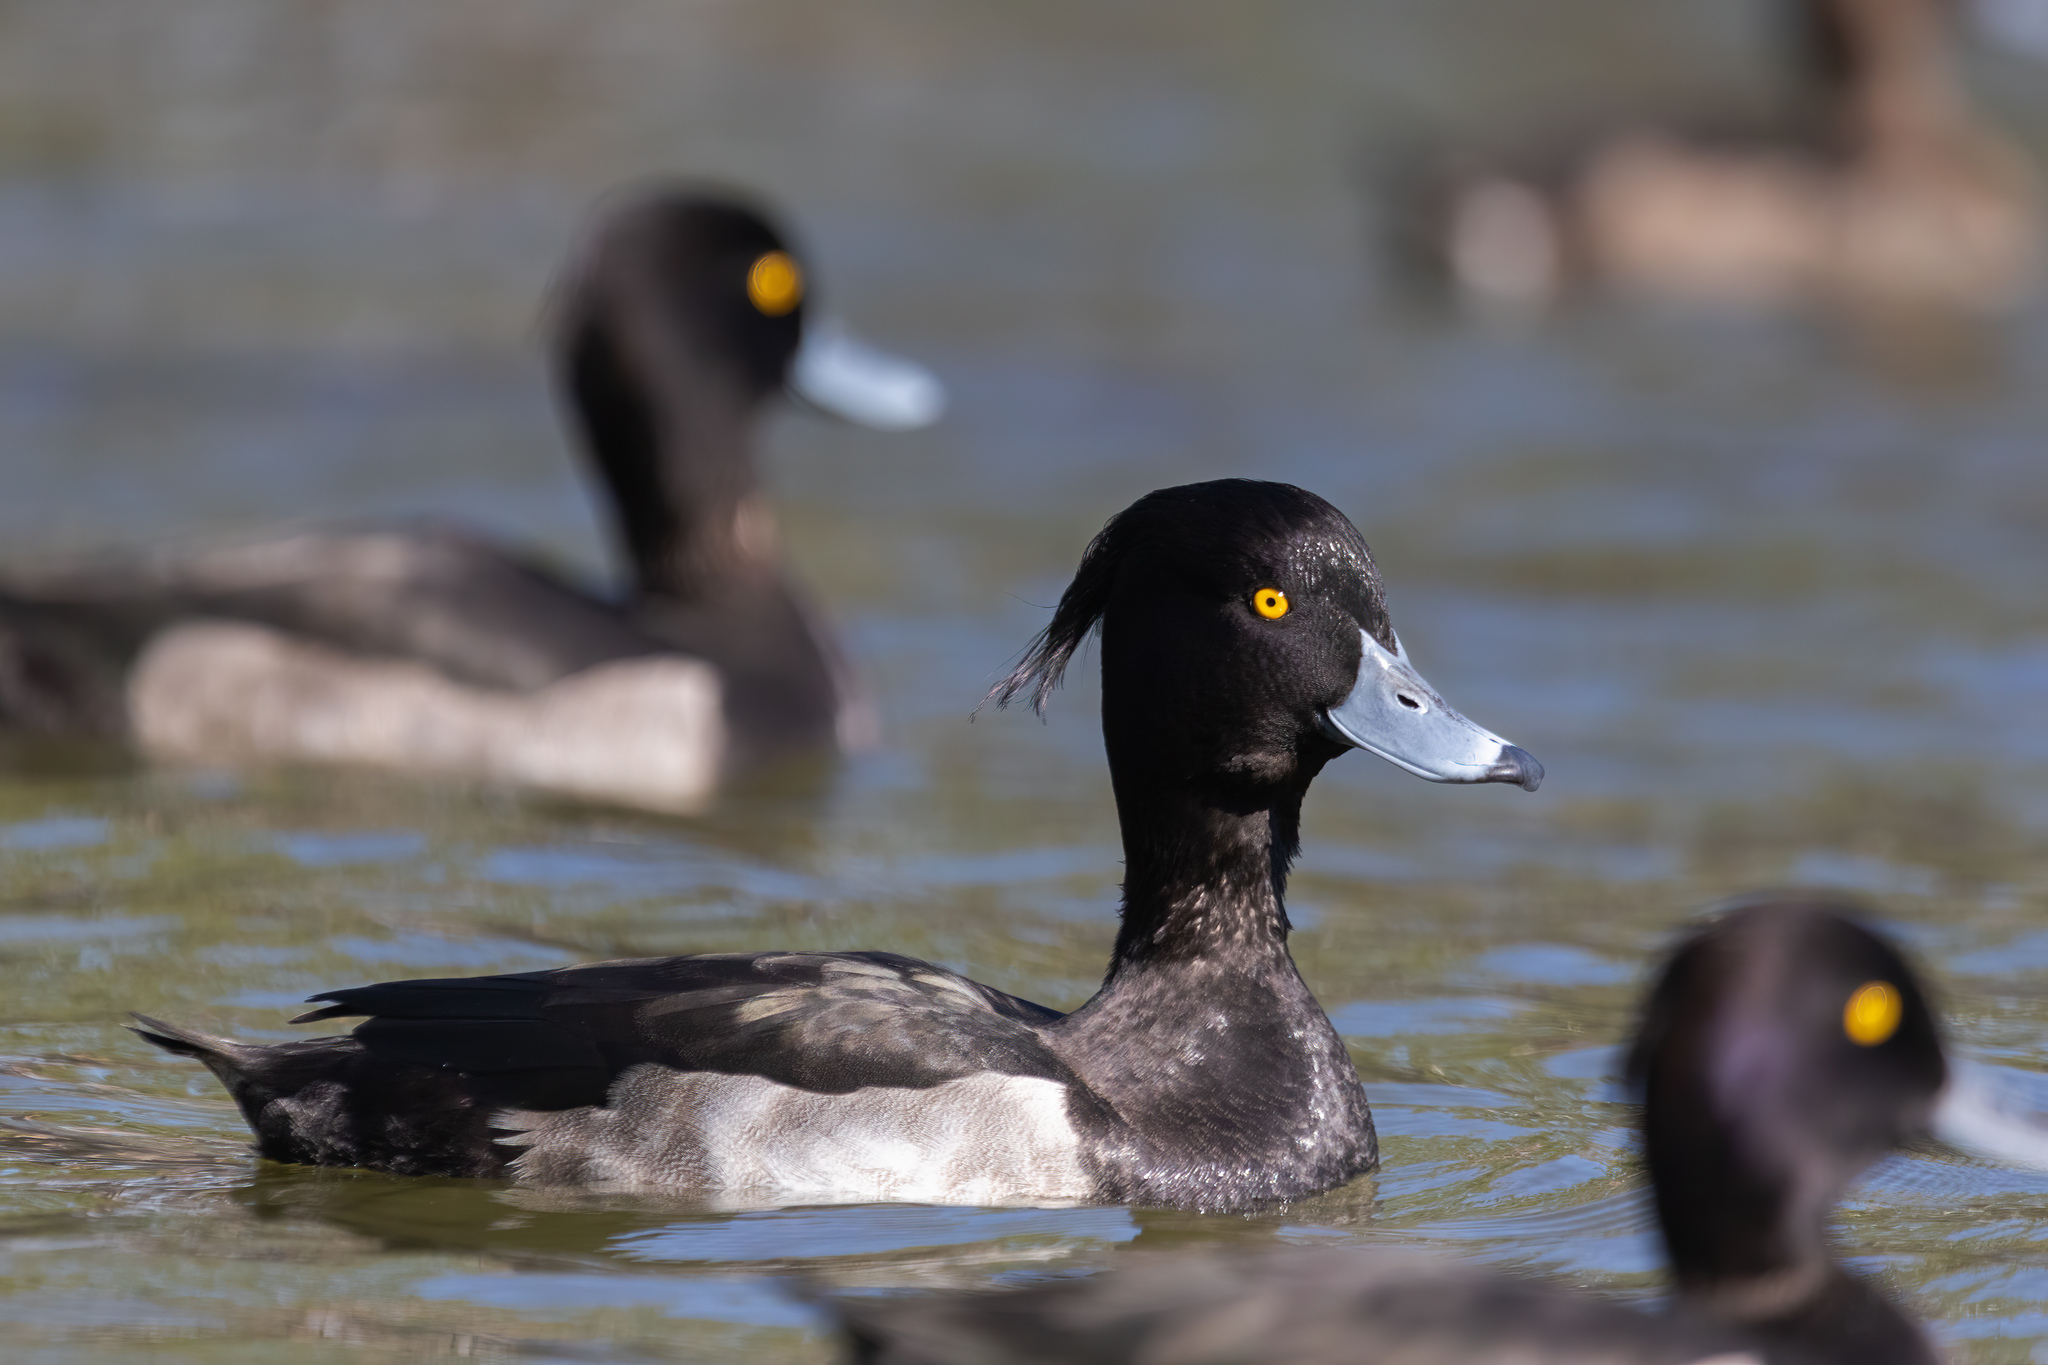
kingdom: Animalia
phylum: Chordata
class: Aves
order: Anseriformes
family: Anatidae
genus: Aythya
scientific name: Aythya fuligula
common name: Tufted duck
